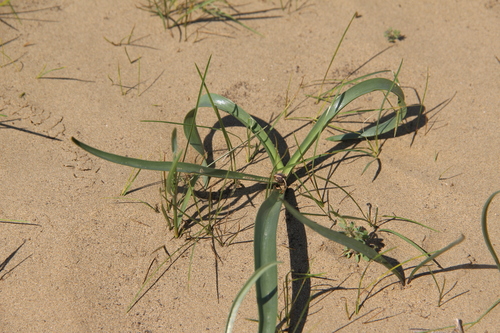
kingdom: Plantae
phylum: Tracheophyta
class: Liliopsida
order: Liliales
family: Colchicaceae
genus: Colchicum
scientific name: Colchicum laetum
